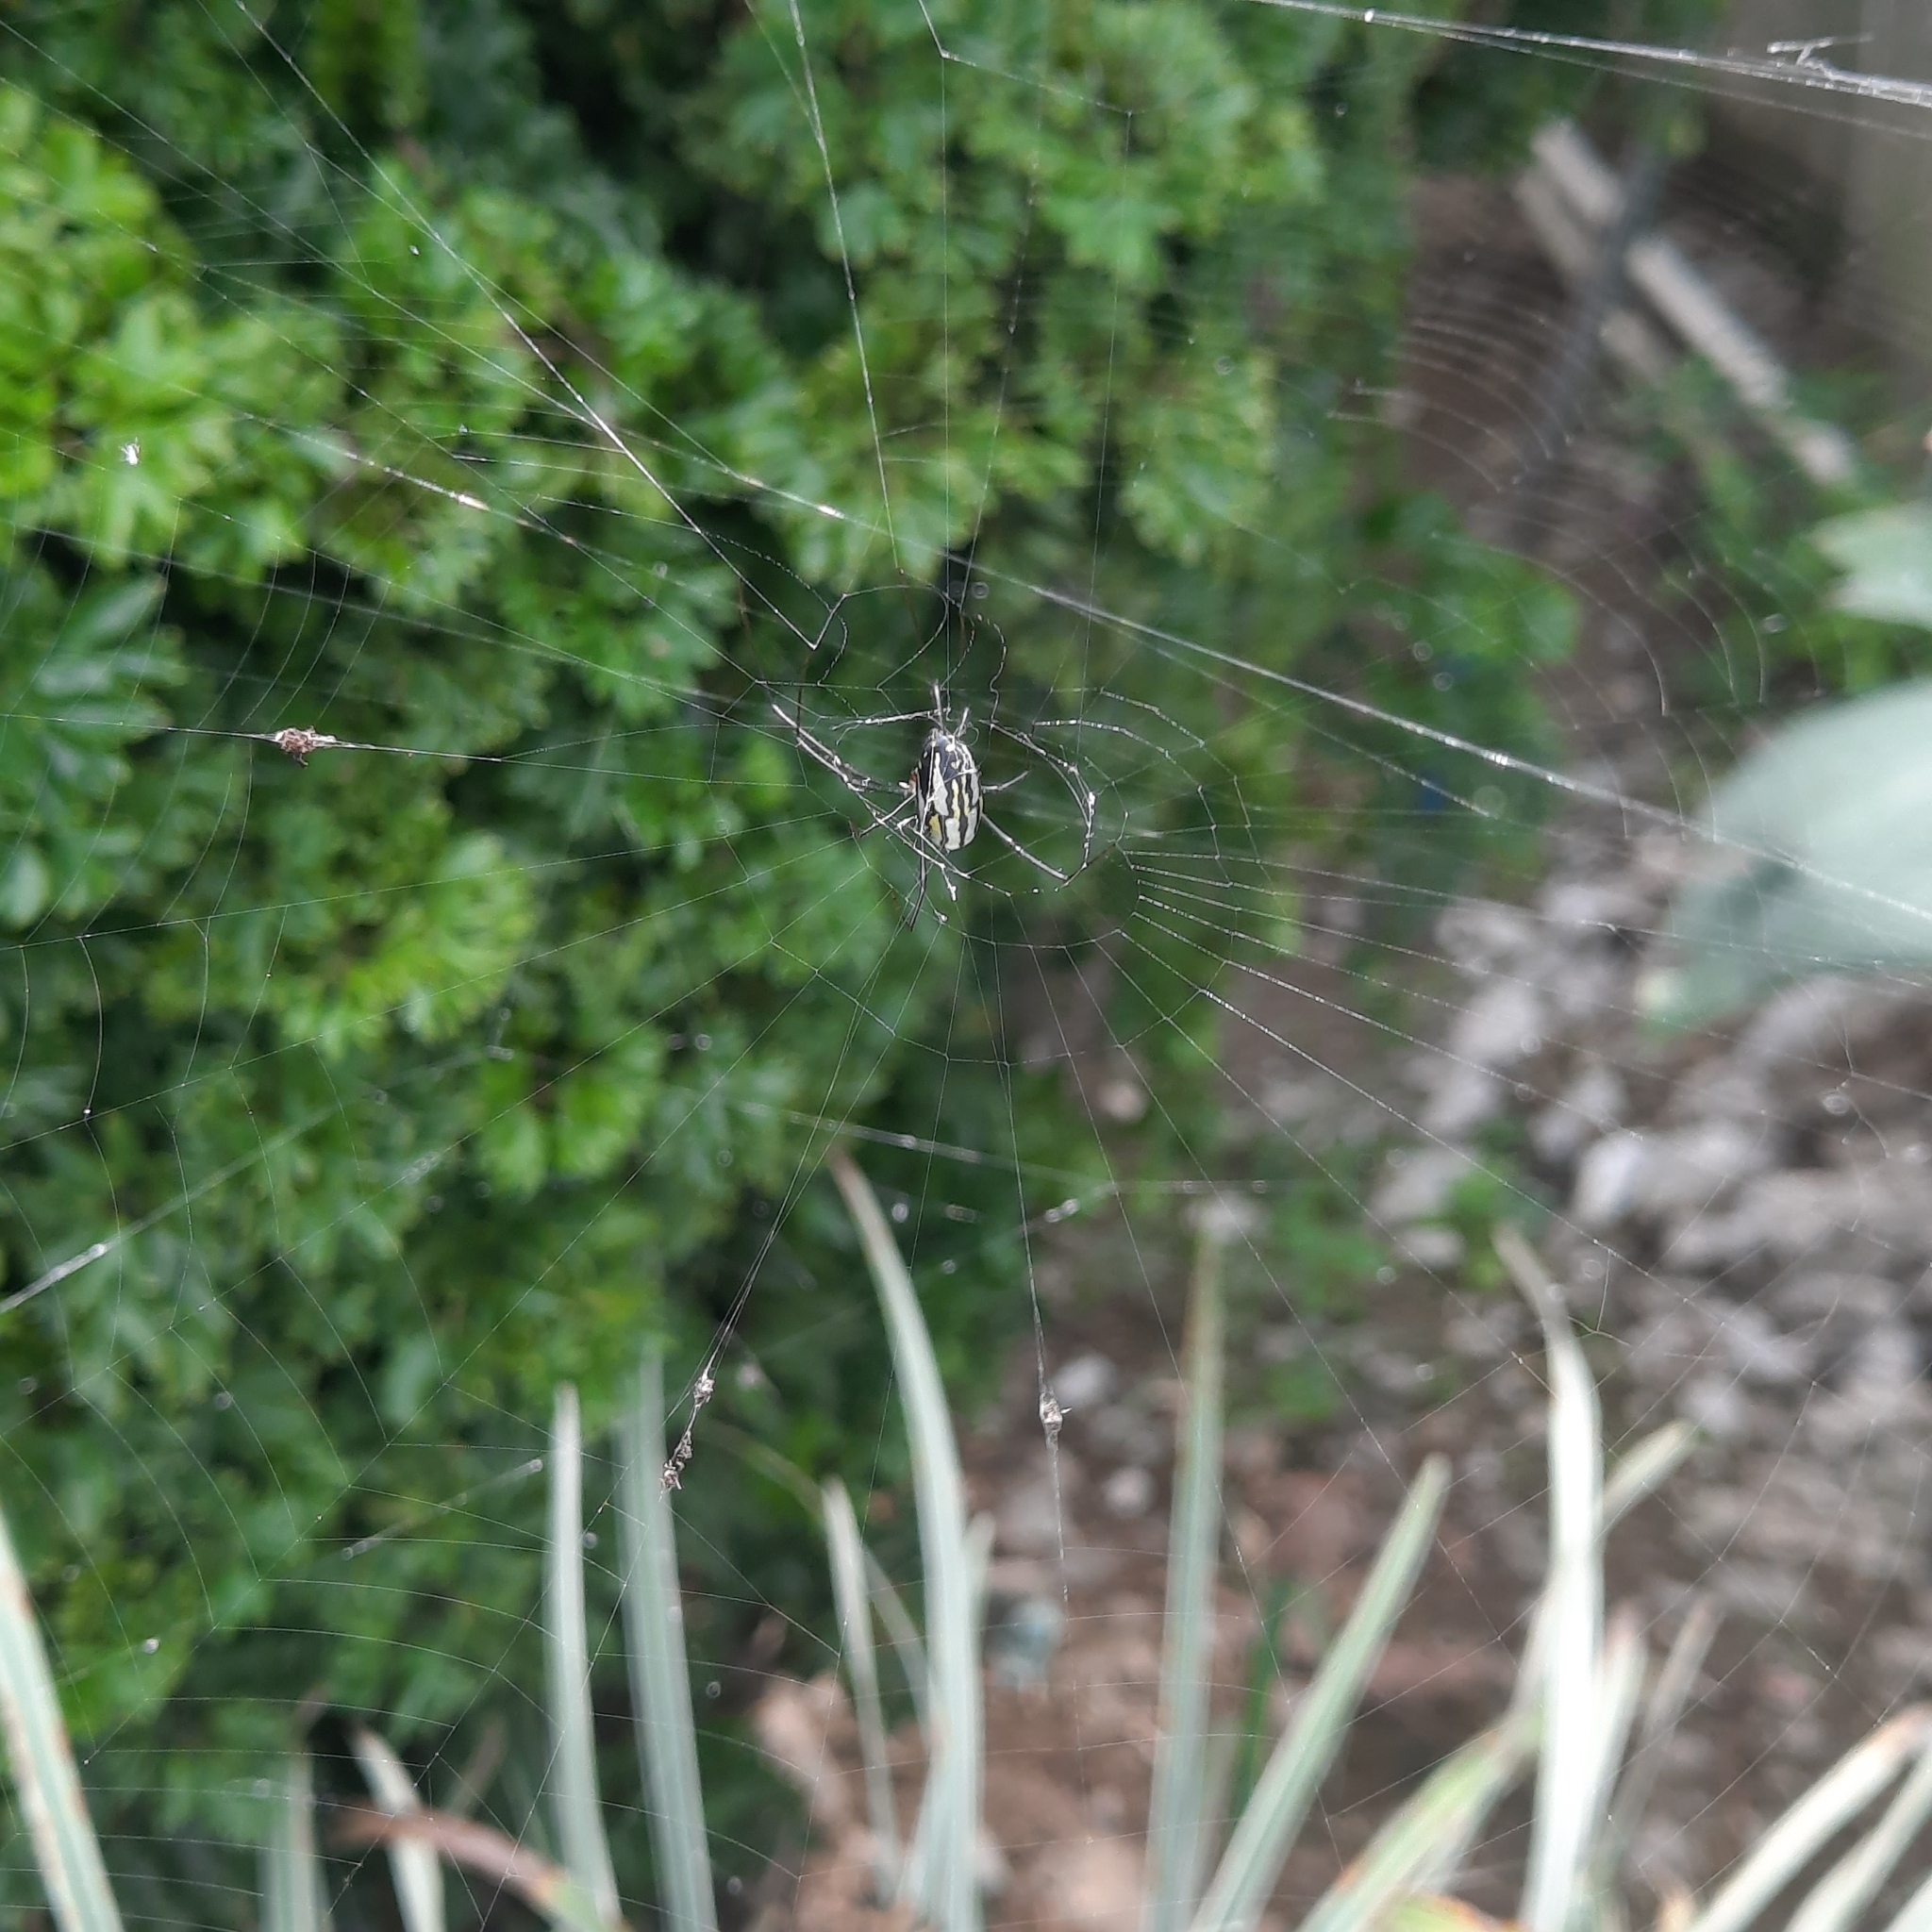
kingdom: Animalia
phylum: Arthropoda
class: Arachnida
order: Araneae
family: Tetragnathidae
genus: Leucauge
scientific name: Leucauge argyra
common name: Longjawed orb weavers
